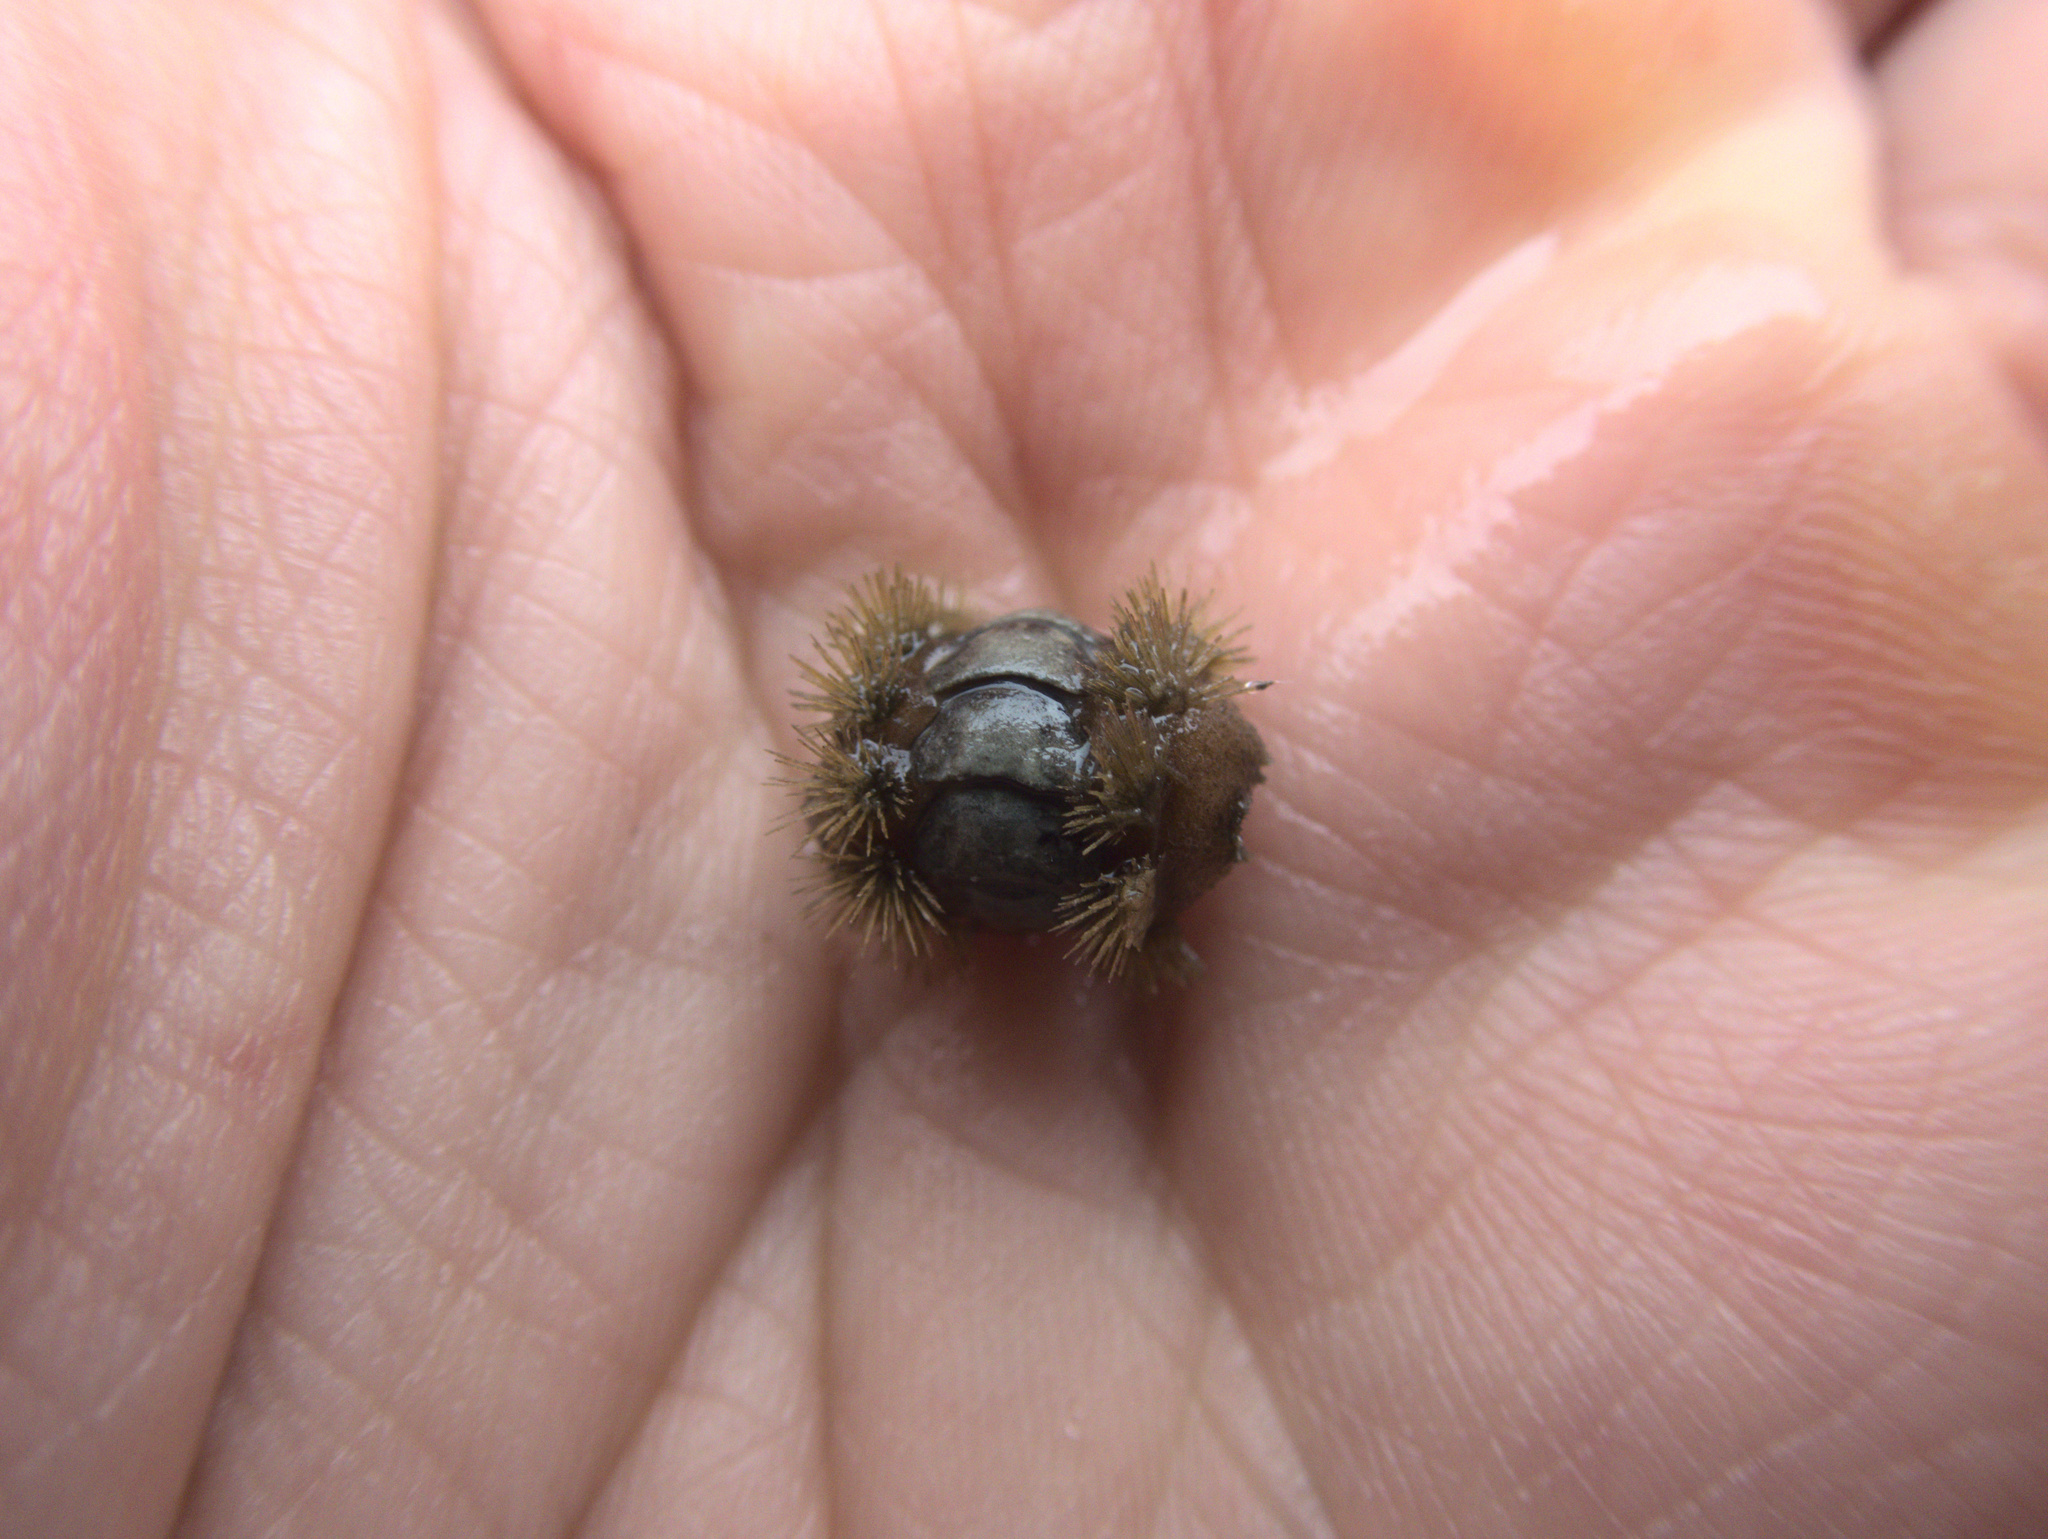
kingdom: Animalia
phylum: Mollusca
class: Polyplacophora
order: Chitonida
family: Acanthochitonidae
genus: Acanthochitona
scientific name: Acanthochitona zelandica
